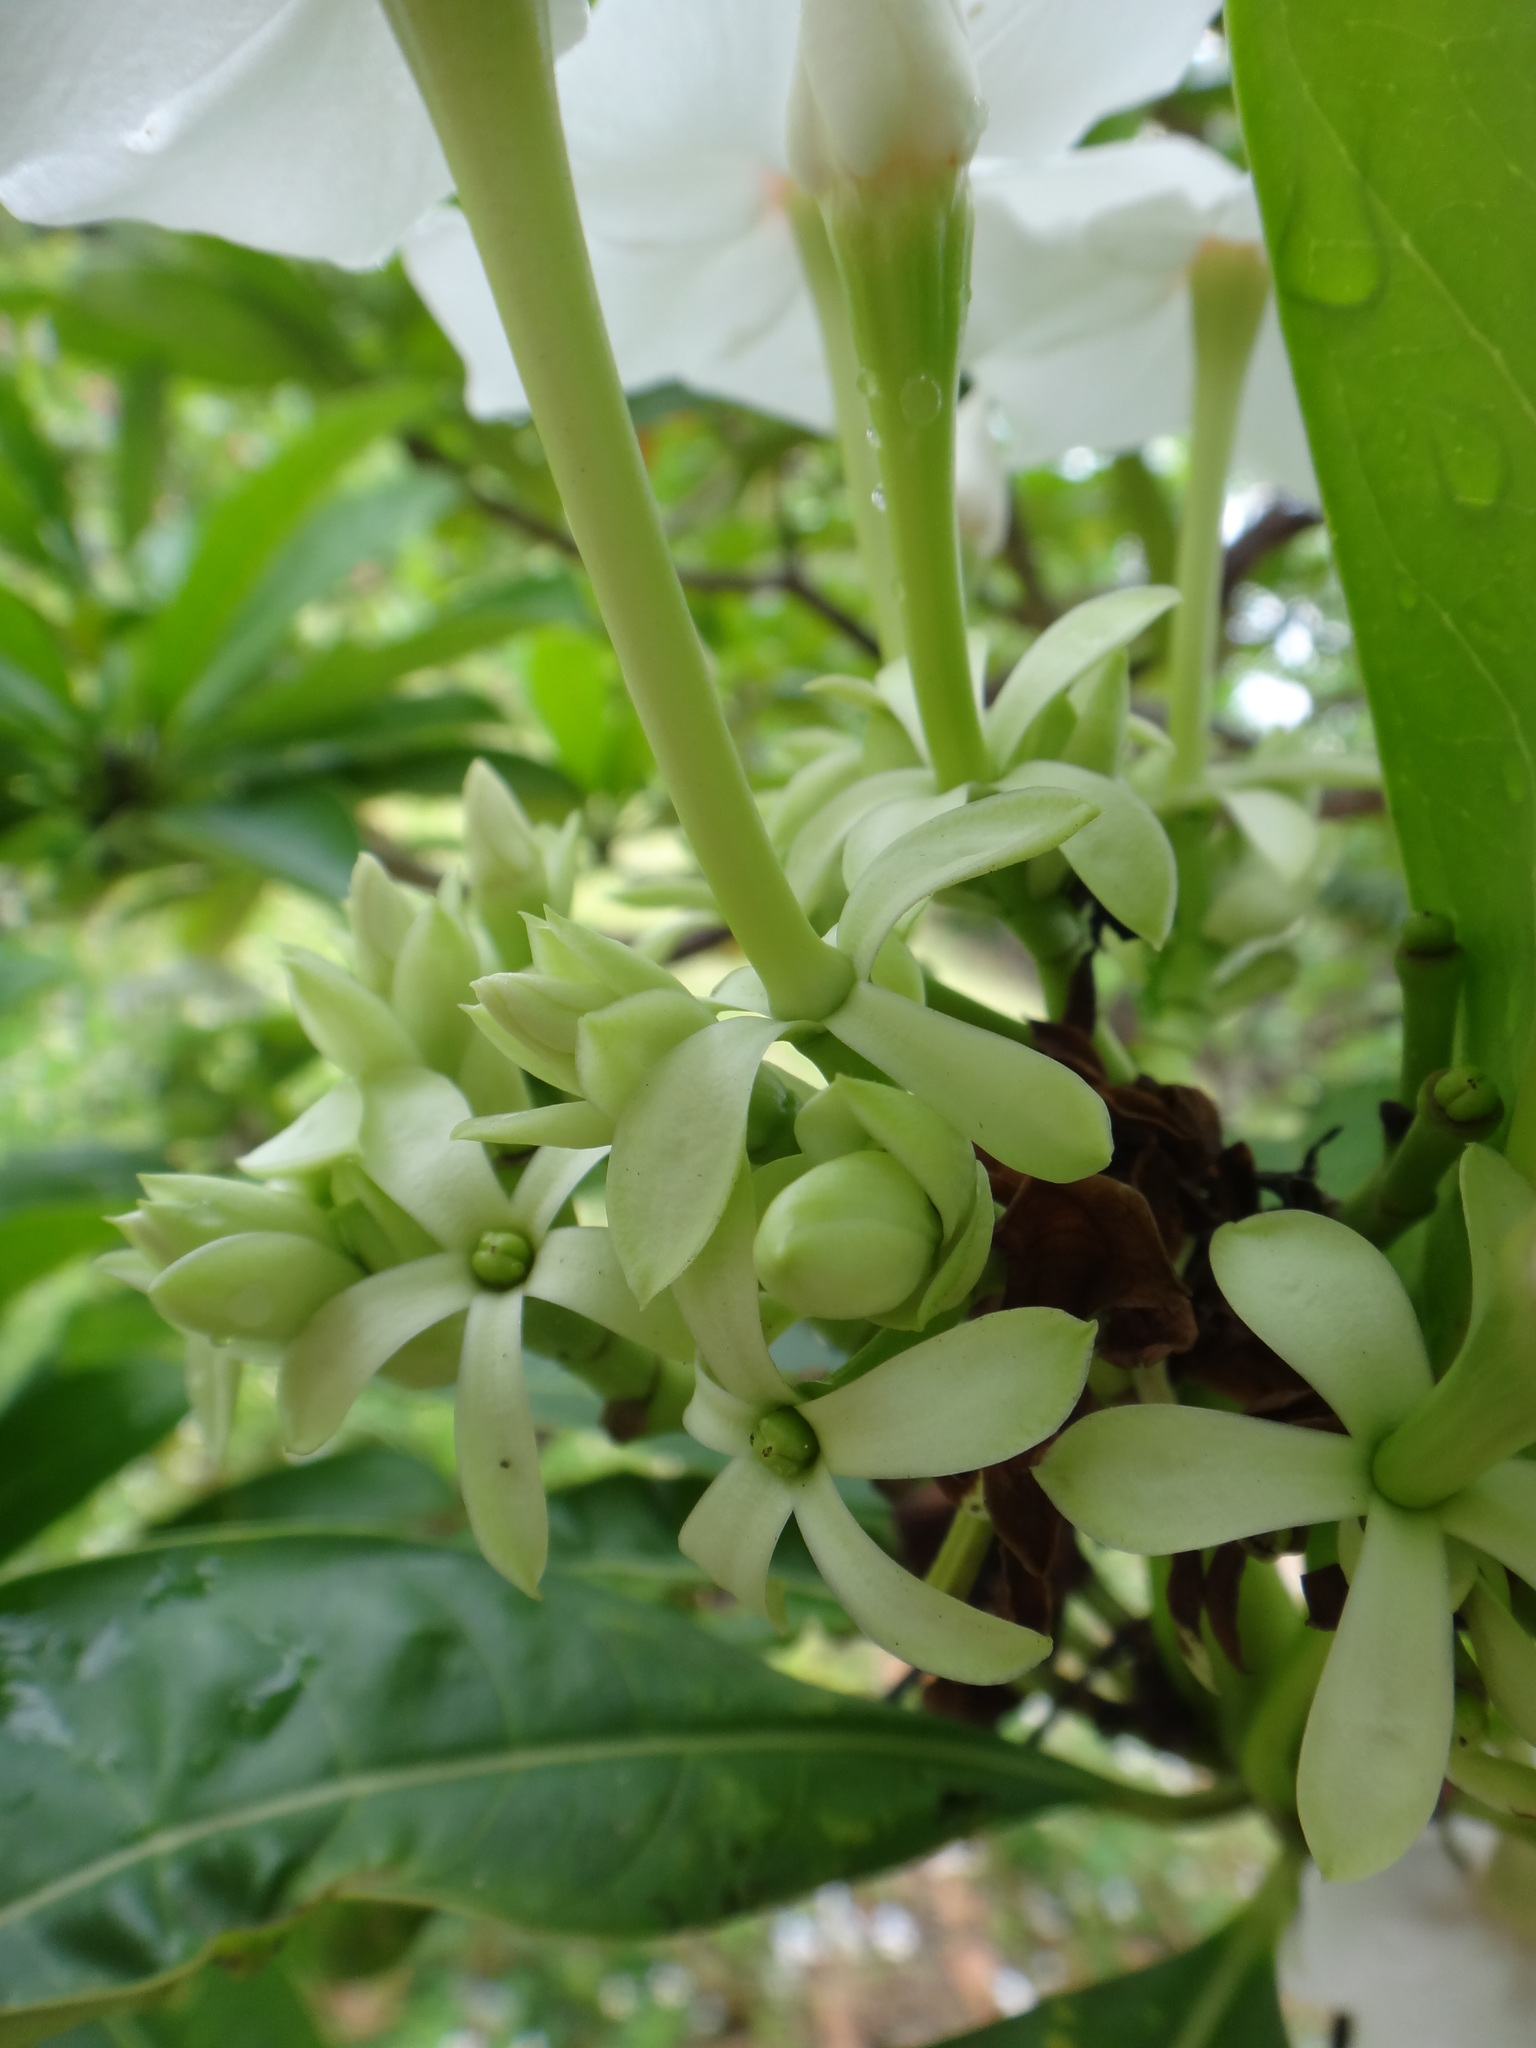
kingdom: Plantae
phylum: Tracheophyta
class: Magnoliopsida
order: Gentianales
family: Apocynaceae
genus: Cerbera
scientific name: Cerbera manghas
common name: Reva
